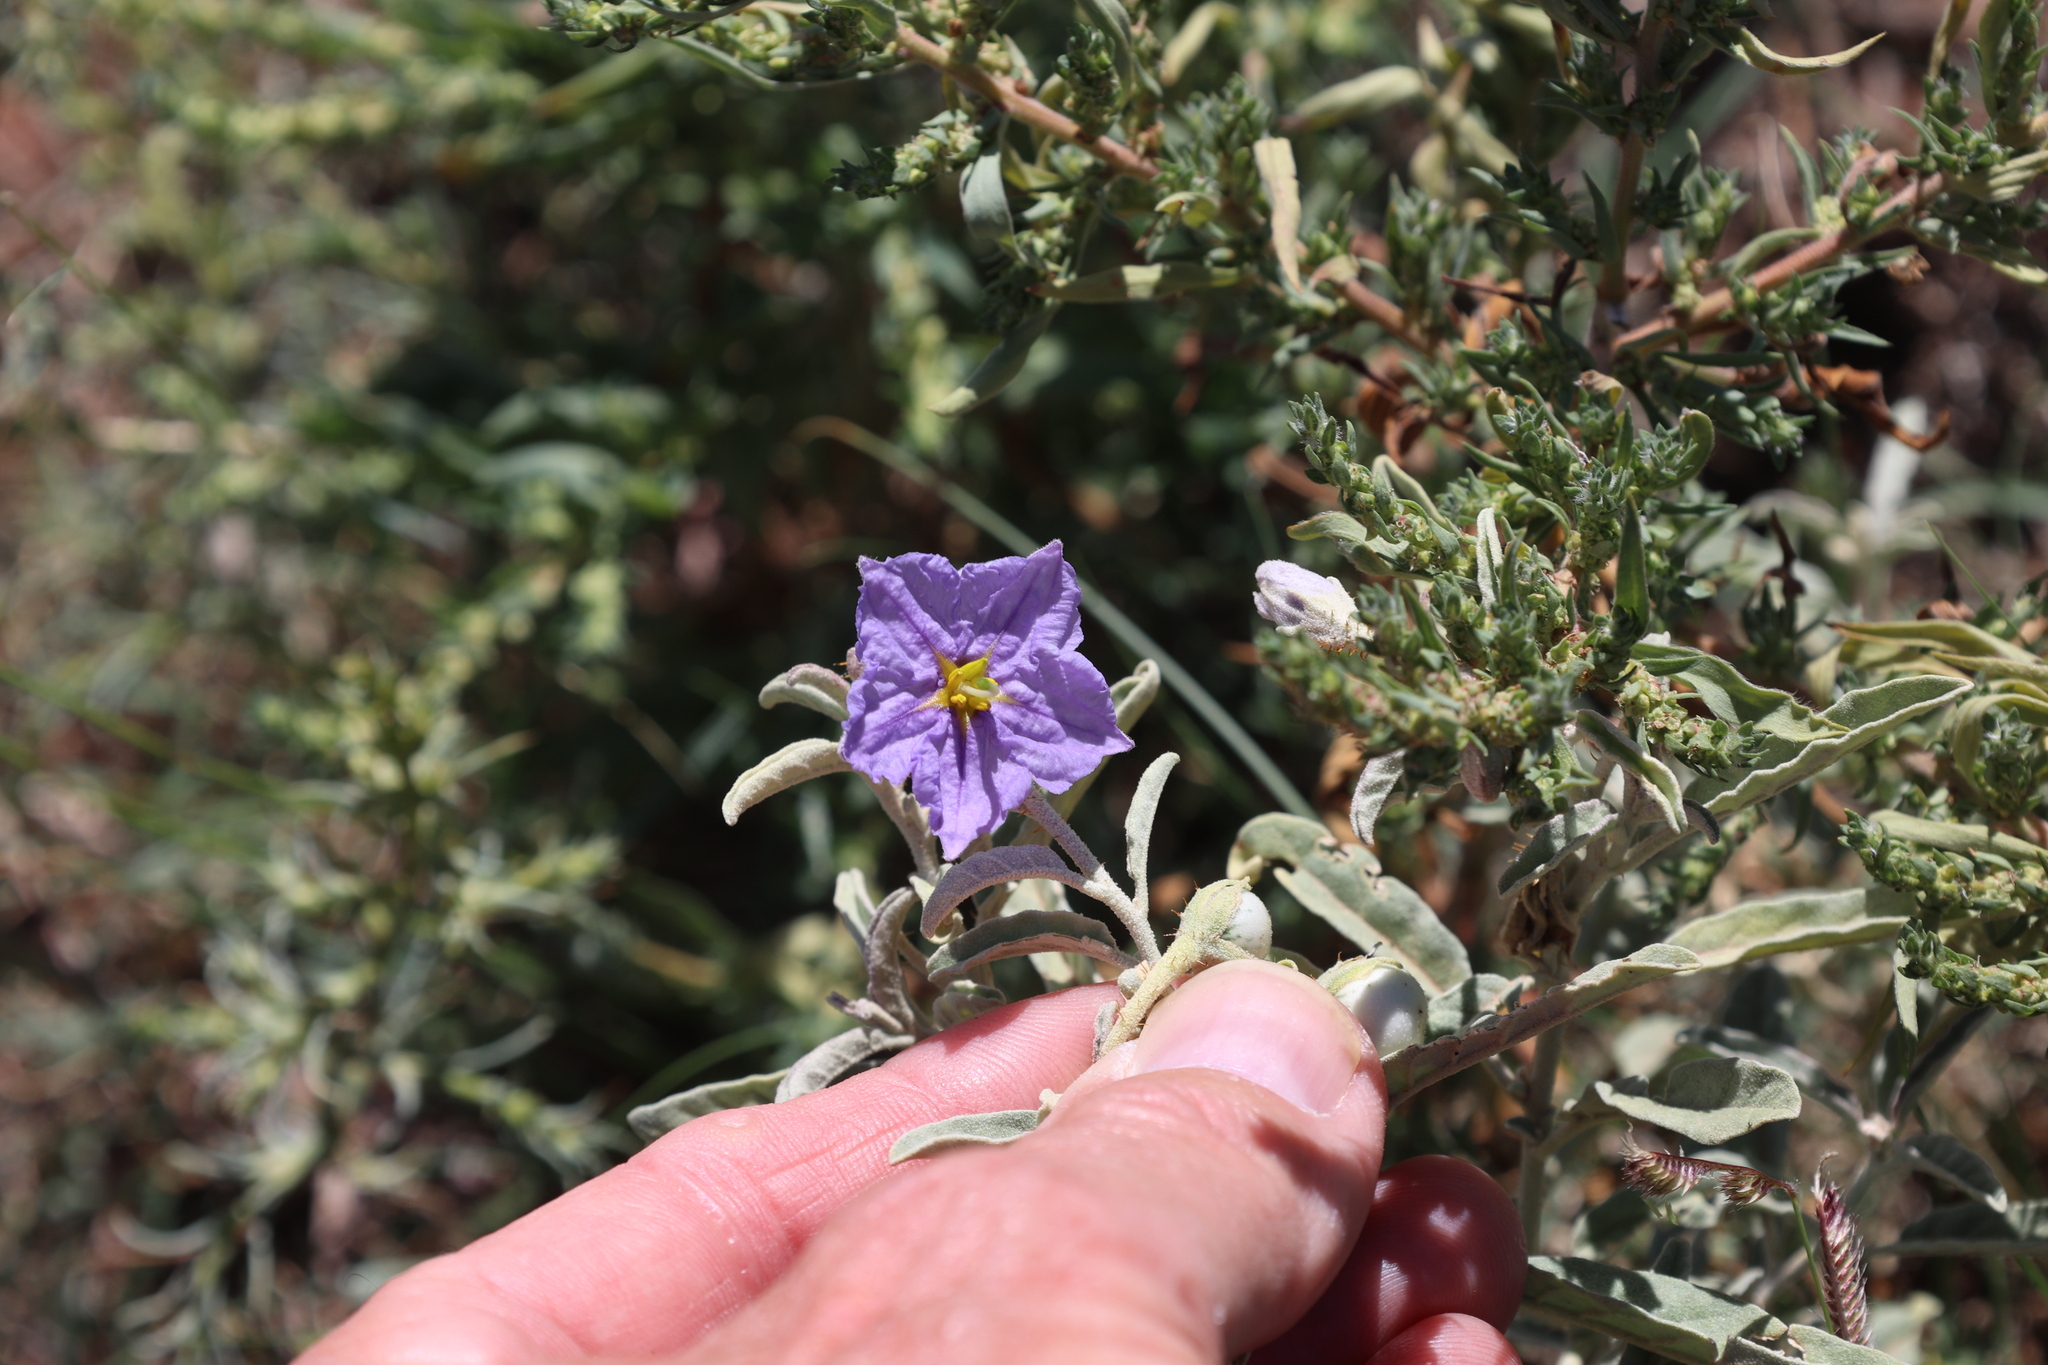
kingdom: Plantae
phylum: Tracheophyta
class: Magnoliopsida
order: Solanales
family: Solanaceae
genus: Solanum
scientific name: Solanum elaeagnifolium
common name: Silverleaf nightshade
